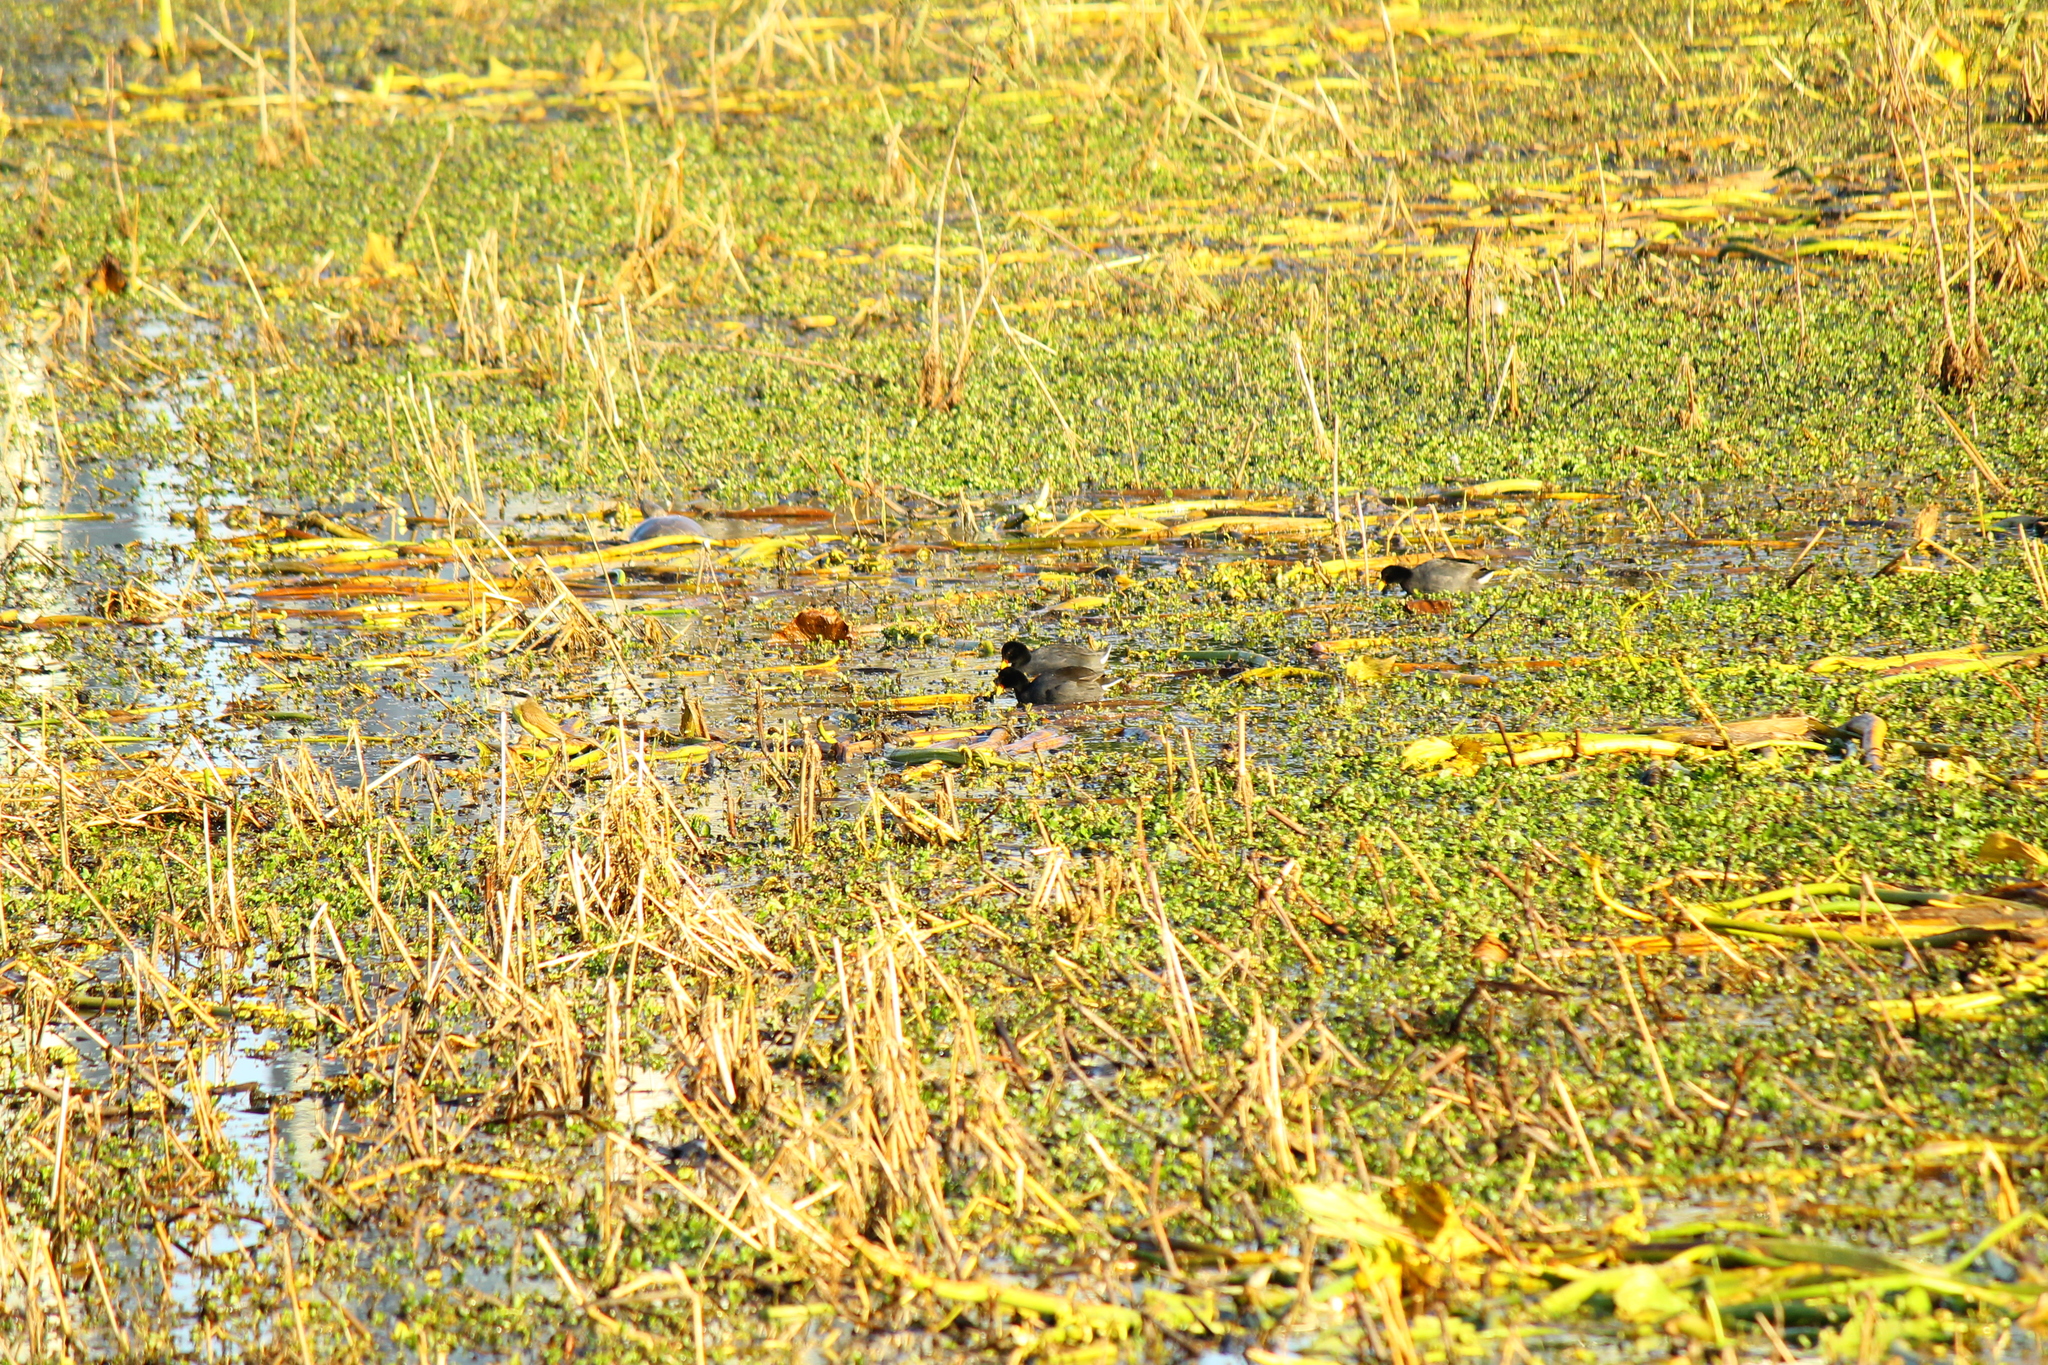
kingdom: Animalia
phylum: Chordata
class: Testudines
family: Chelidae
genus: Phrynops
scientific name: Phrynops hilarii
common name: Side-necked turtle of saint hillaire
